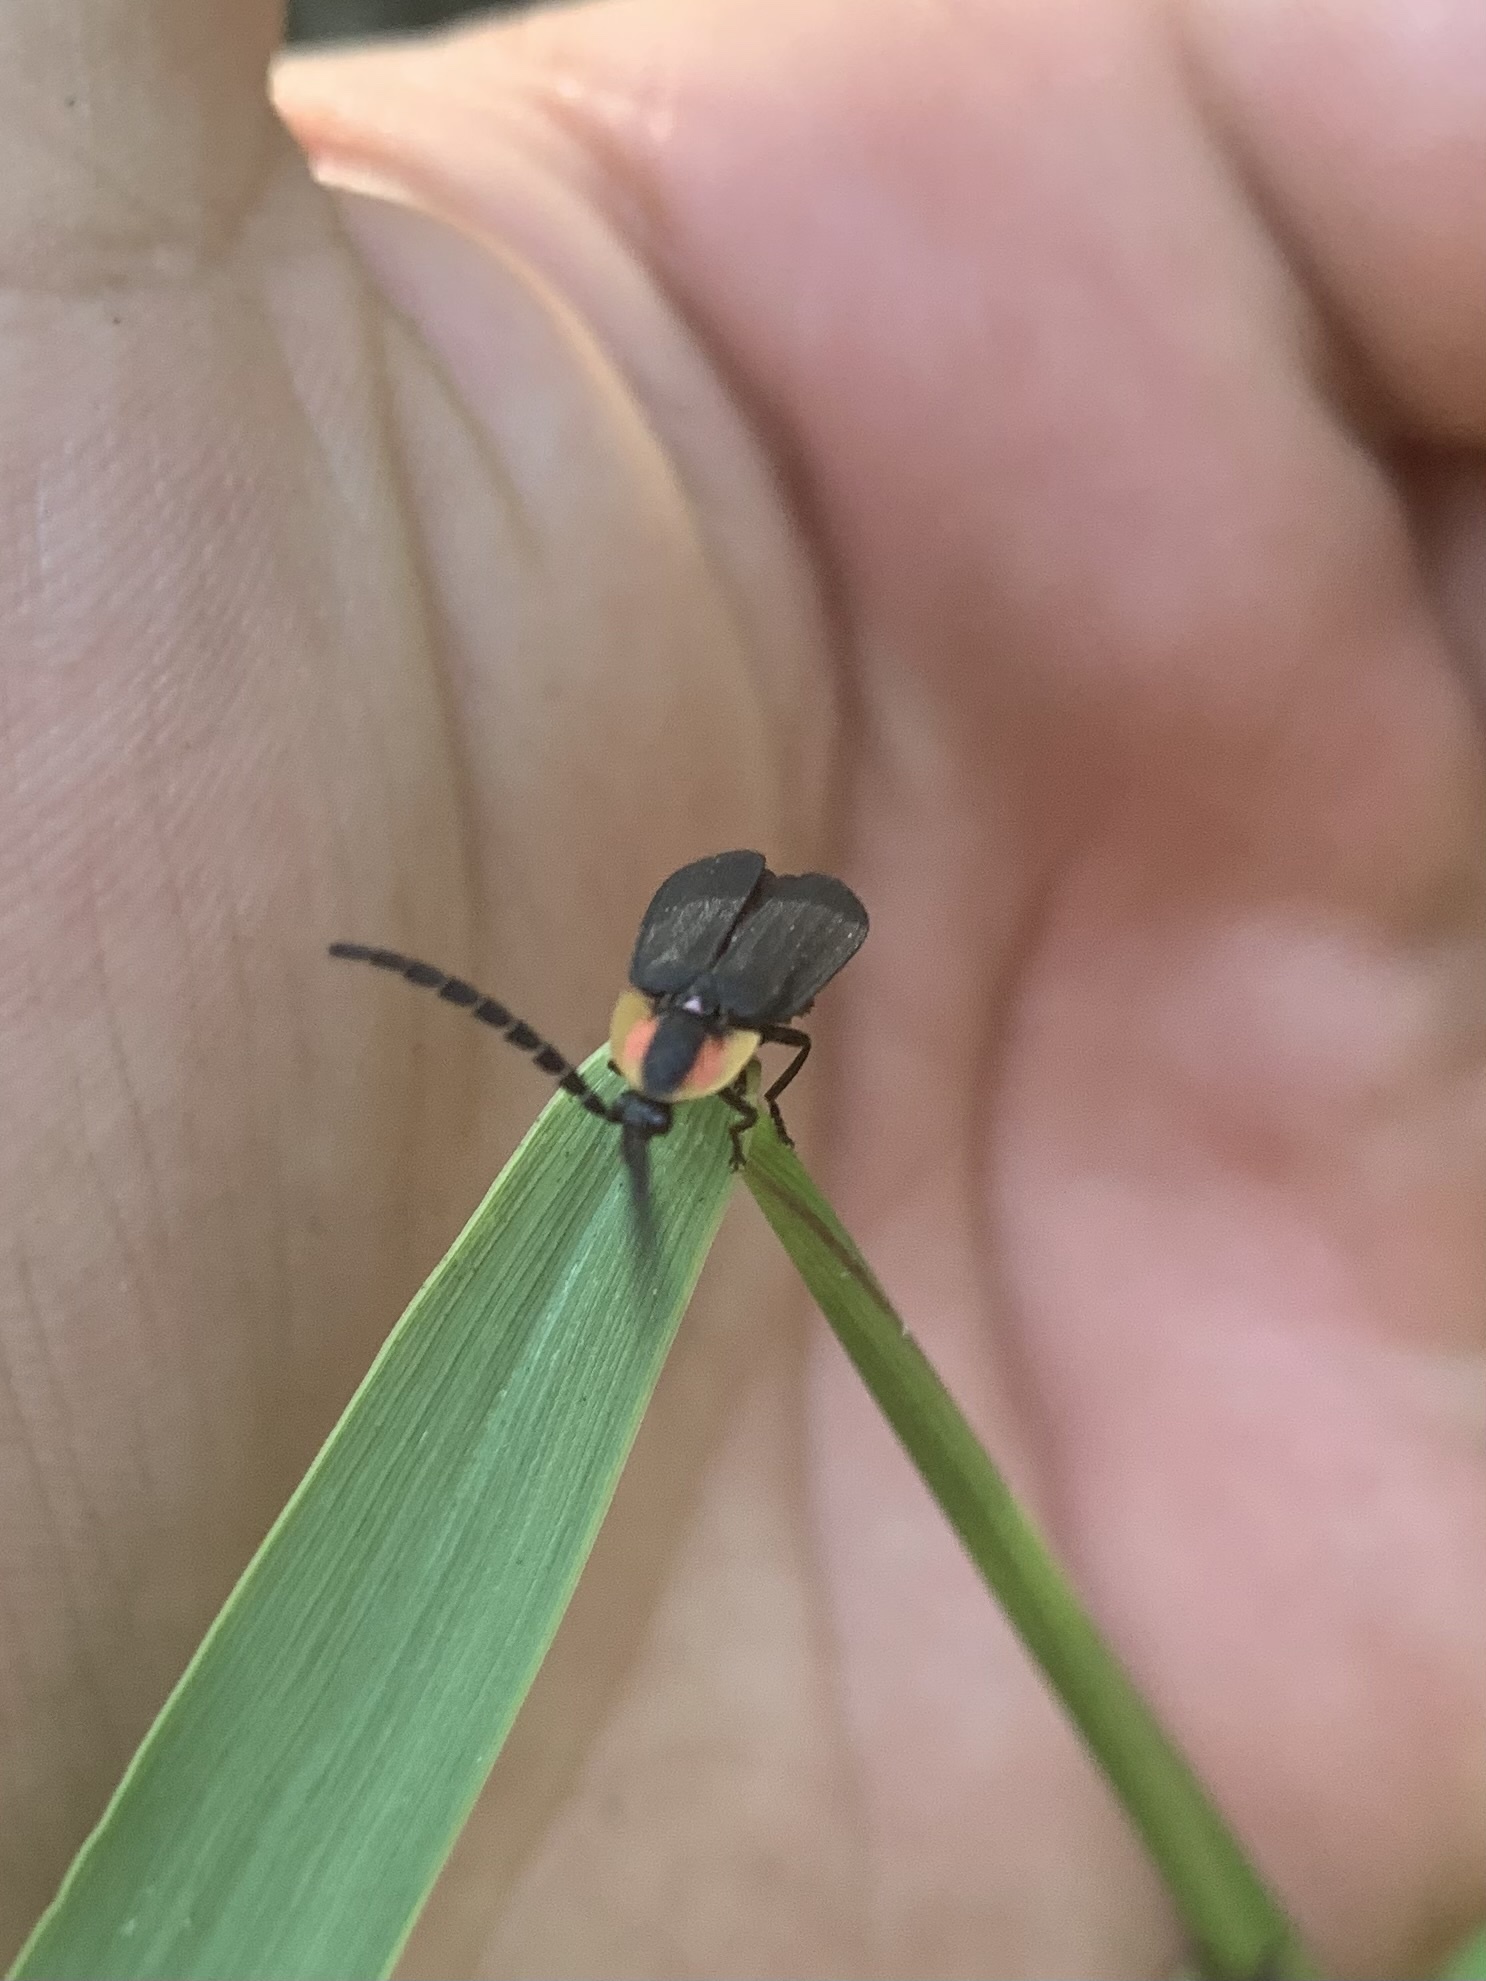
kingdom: Animalia
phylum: Arthropoda
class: Insecta
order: Coleoptera
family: Lampyridae
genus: Lucidota
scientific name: Lucidota atra
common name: Black firefly
